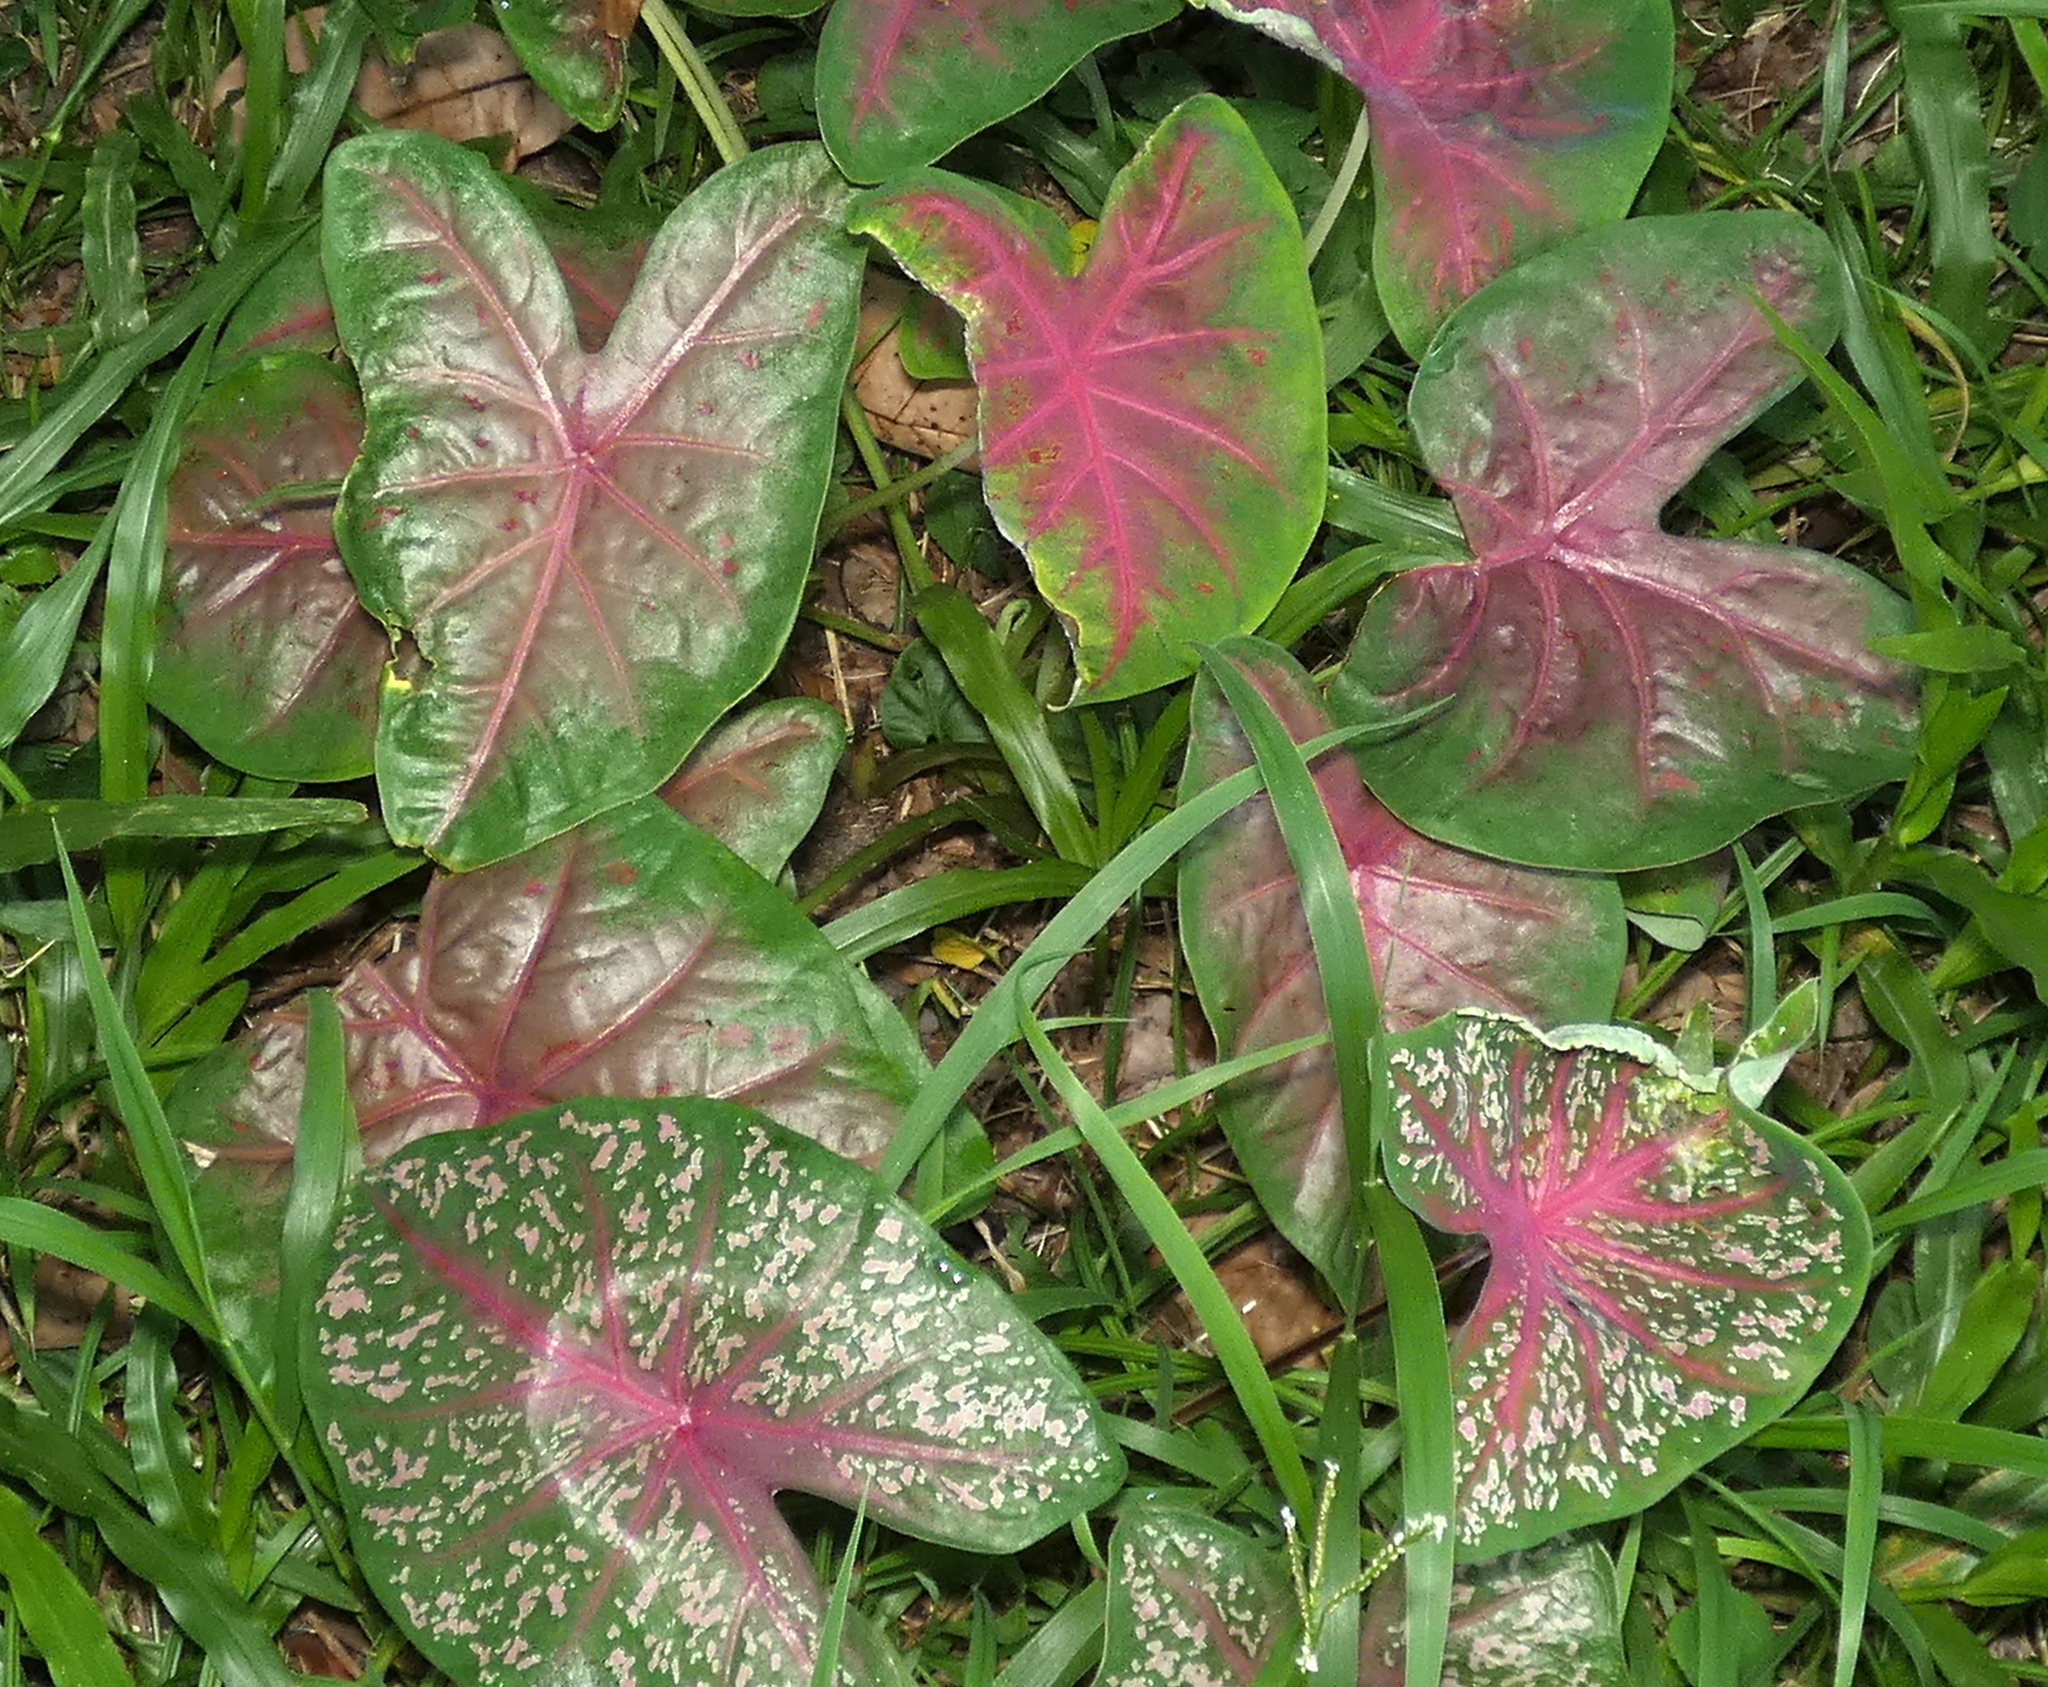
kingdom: Plantae
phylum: Tracheophyta
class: Liliopsida
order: Alismatales
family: Araceae
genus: Caladium
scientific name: Caladium bicolor
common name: Artist's pallet
